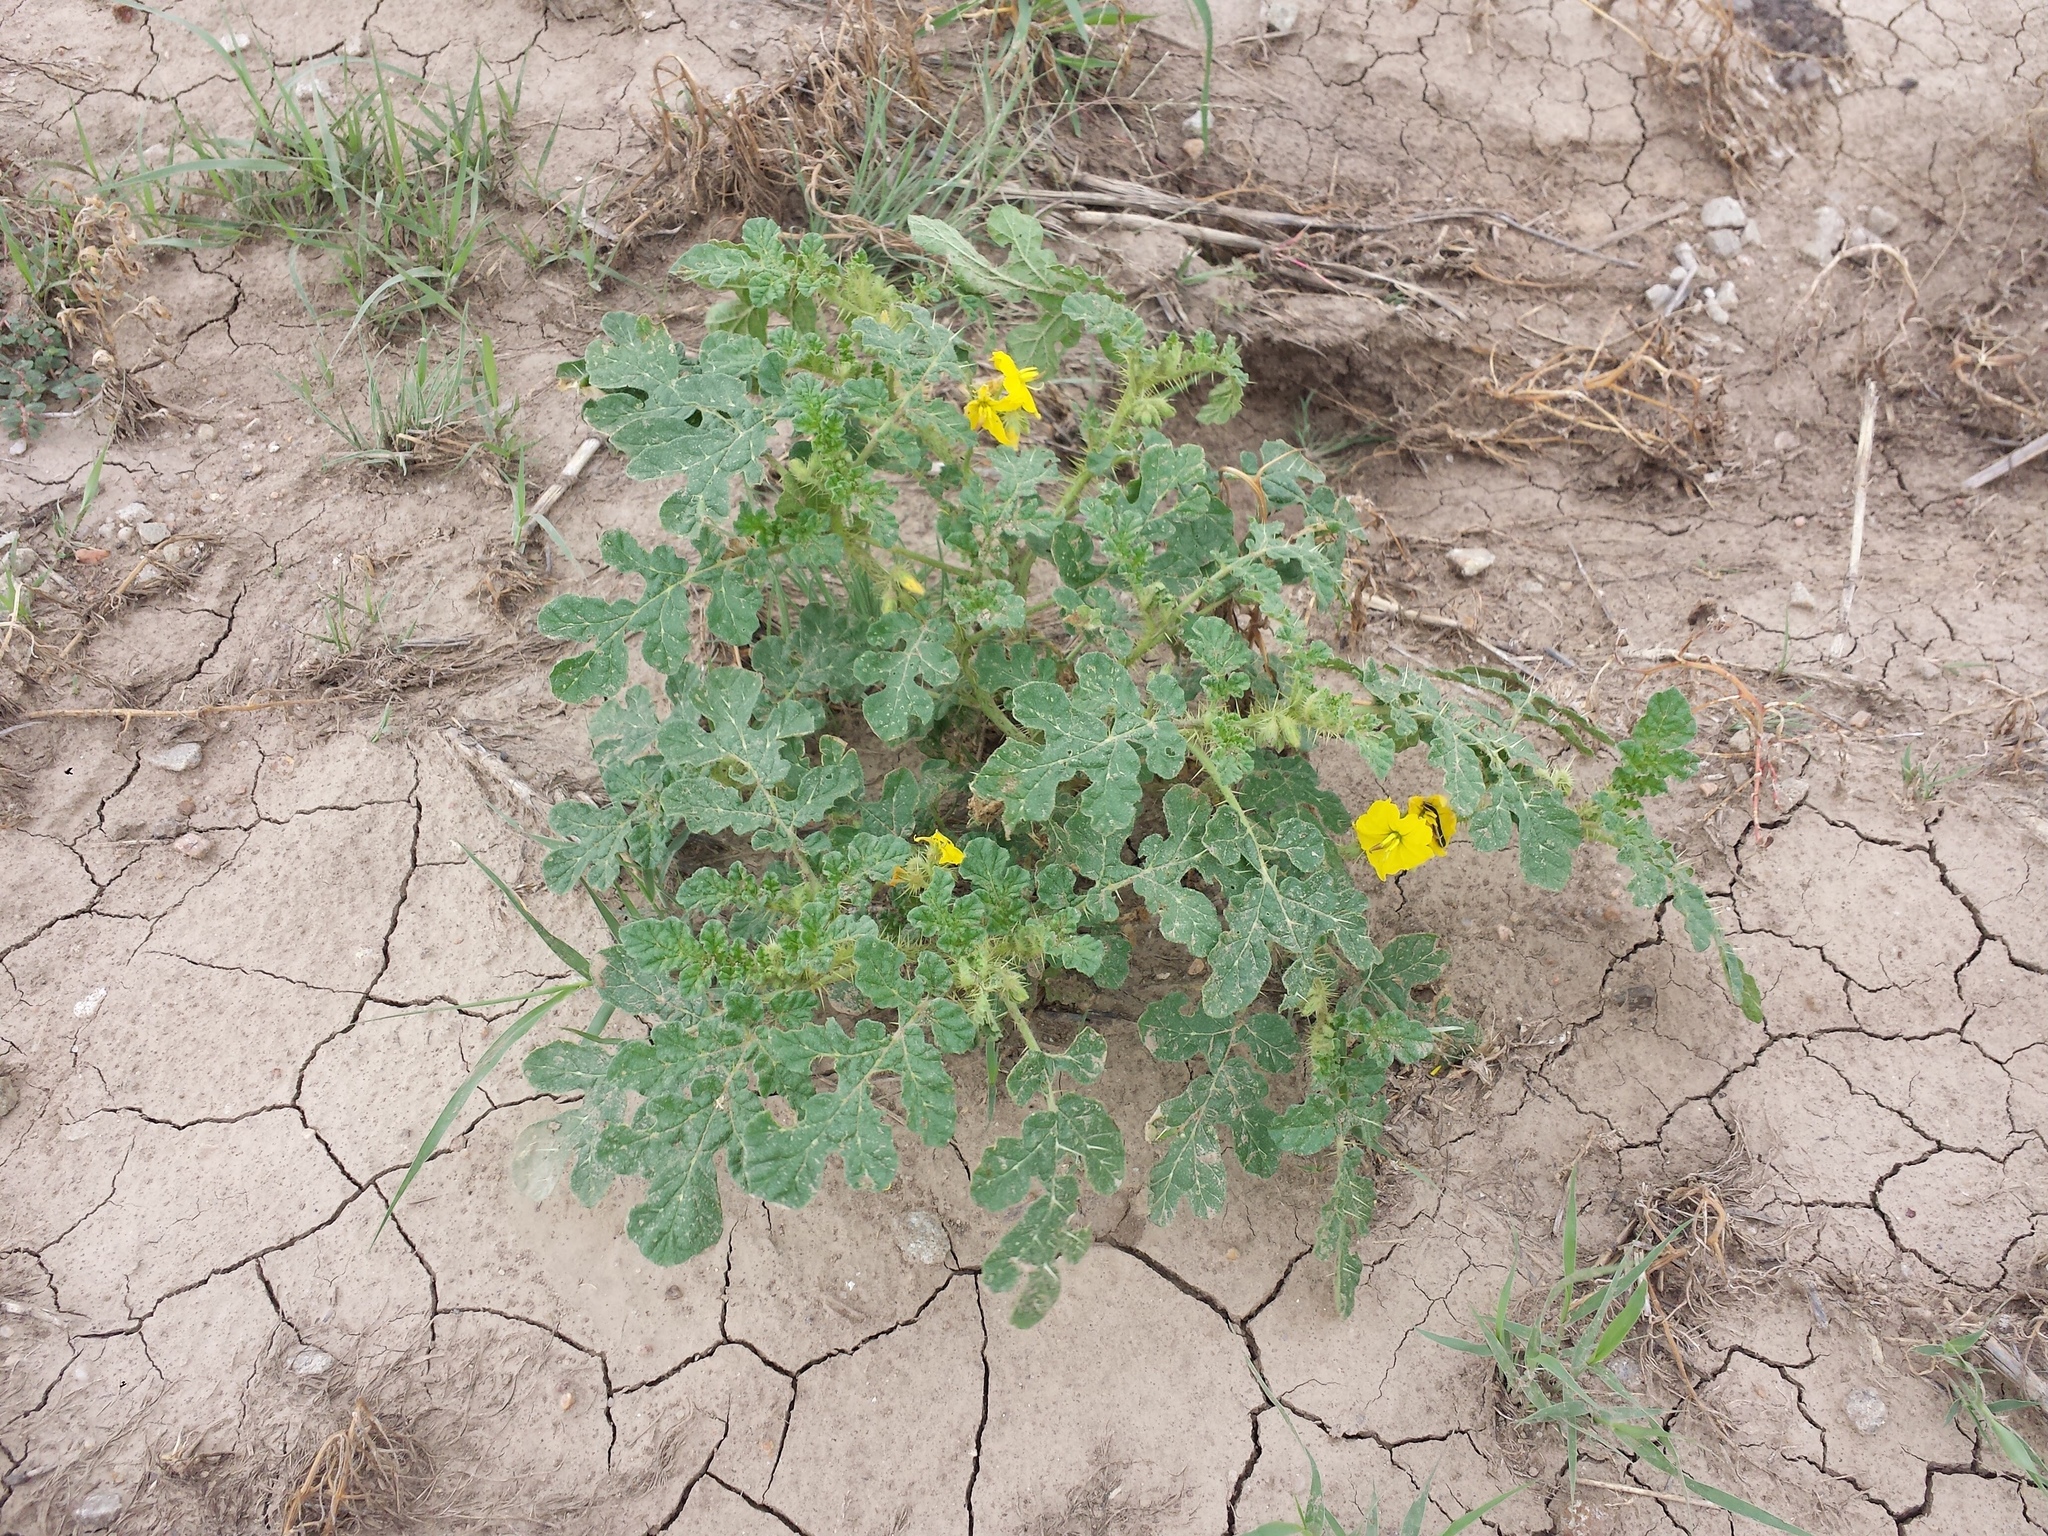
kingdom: Plantae
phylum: Tracheophyta
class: Magnoliopsida
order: Solanales
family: Solanaceae
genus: Solanum
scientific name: Solanum angustifolium
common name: Buffalobur nightshade
